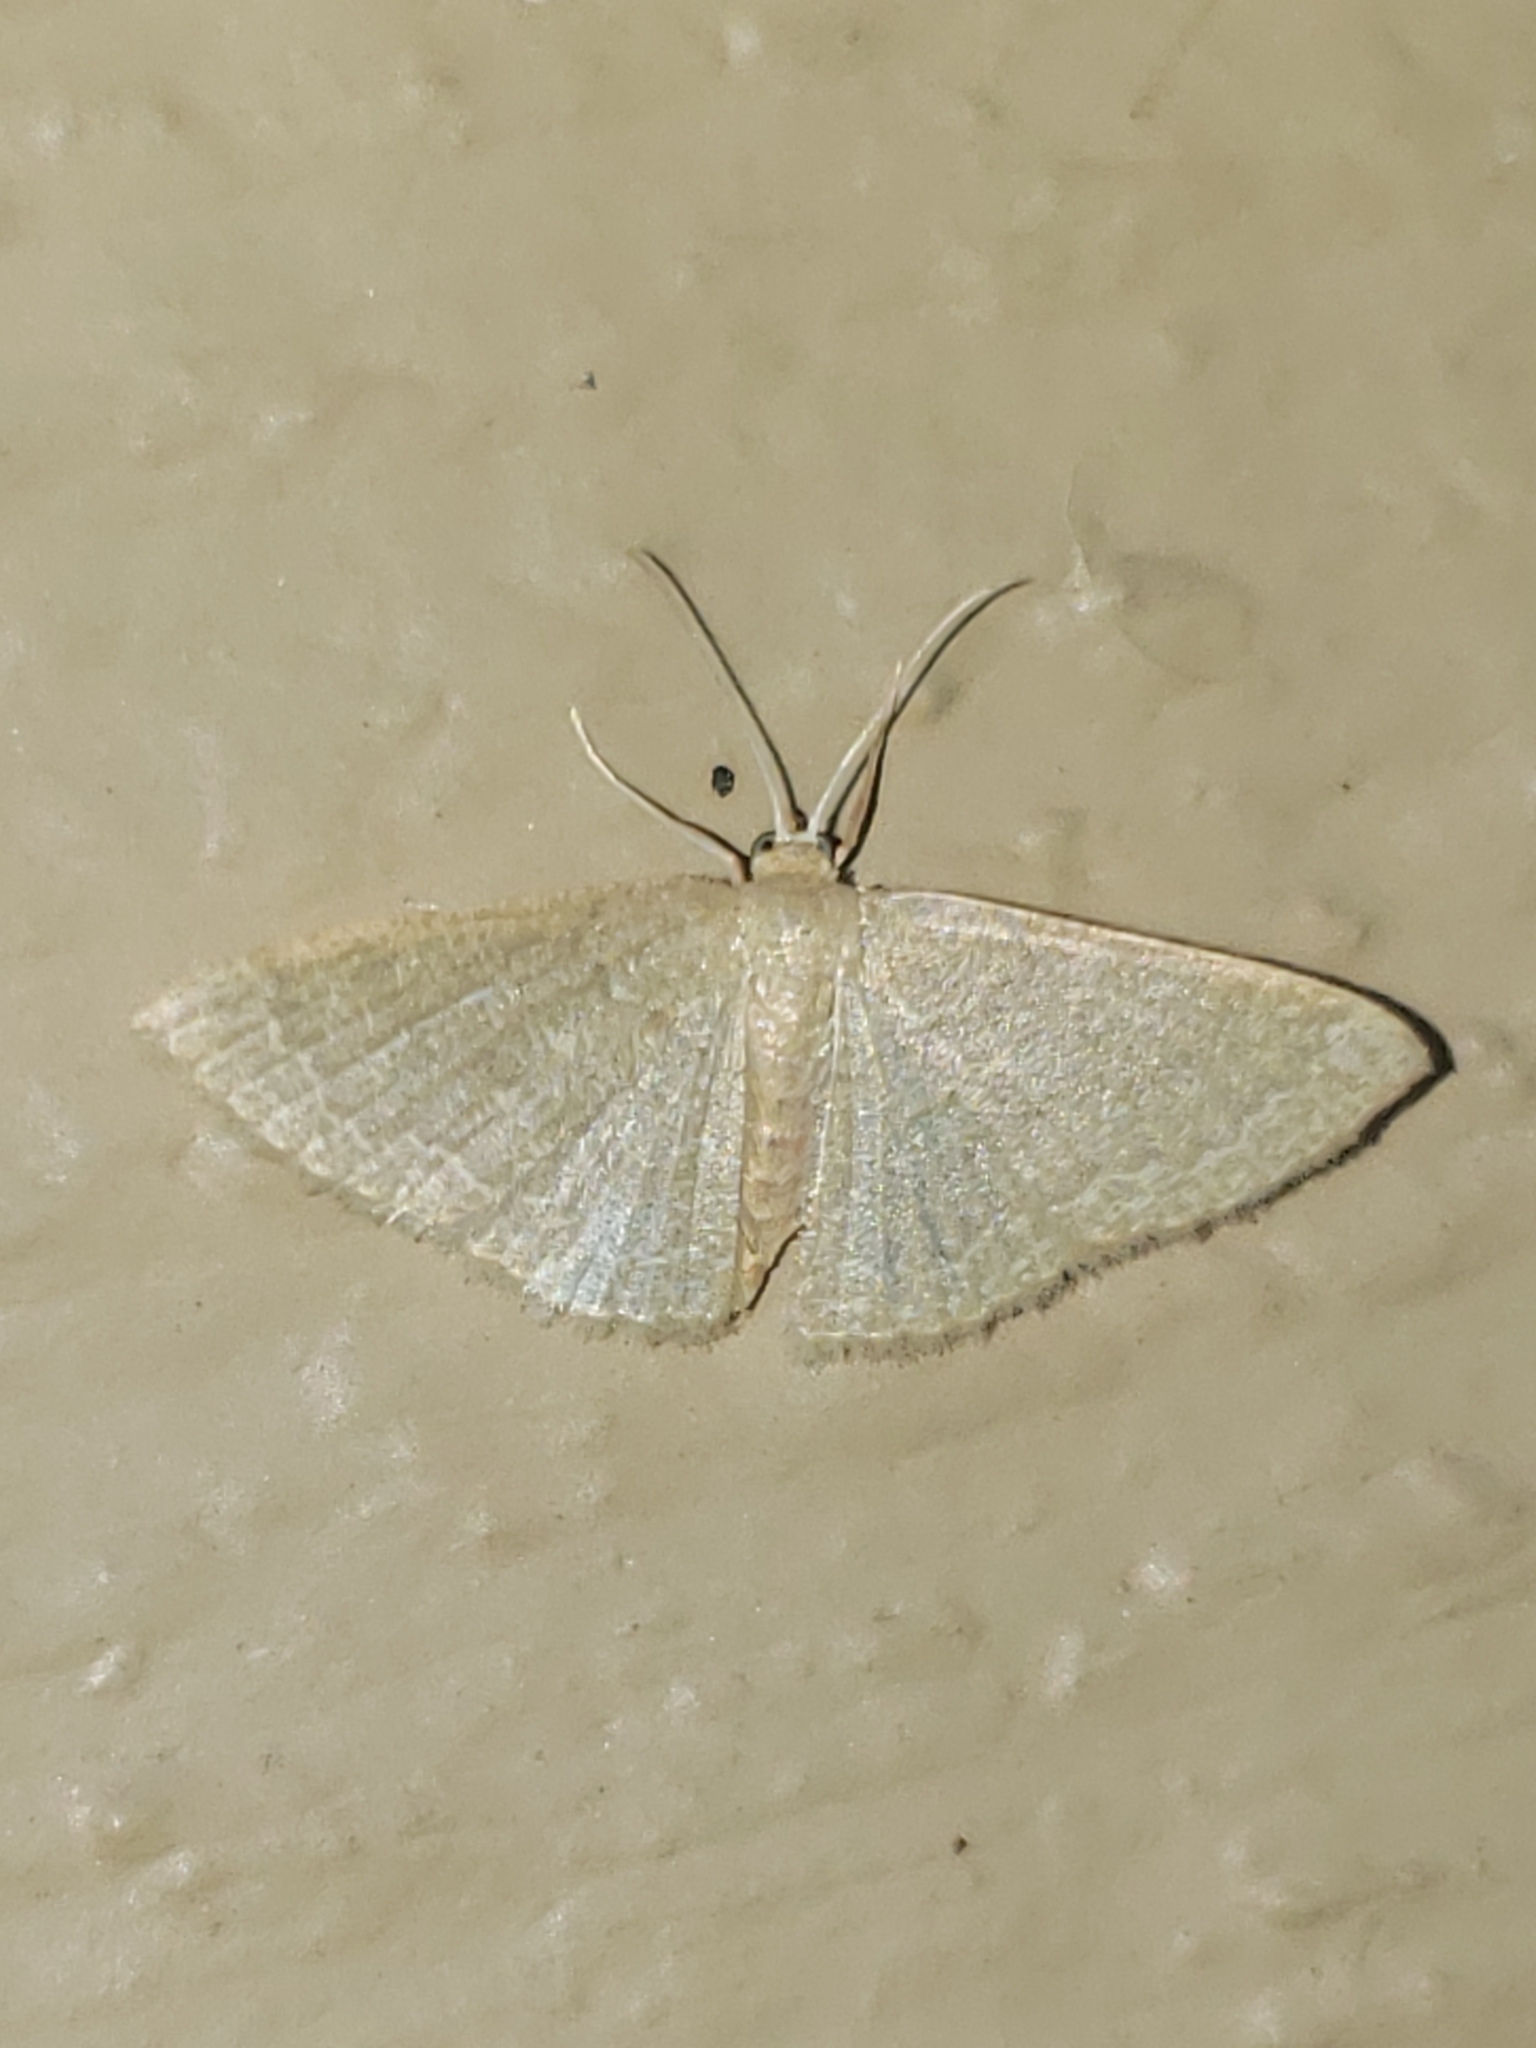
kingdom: Animalia
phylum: Arthropoda
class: Insecta
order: Lepidoptera
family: Geometridae
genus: Pleuroprucha
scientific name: Pleuroprucha insulsaria
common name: Common tan wave
